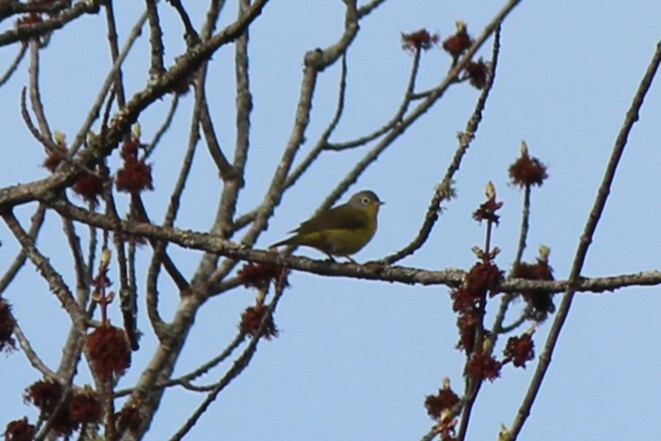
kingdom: Animalia
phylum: Chordata
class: Aves
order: Passeriformes
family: Parulidae
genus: Leiothlypis
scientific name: Leiothlypis ruficapilla
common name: Nashville warbler
